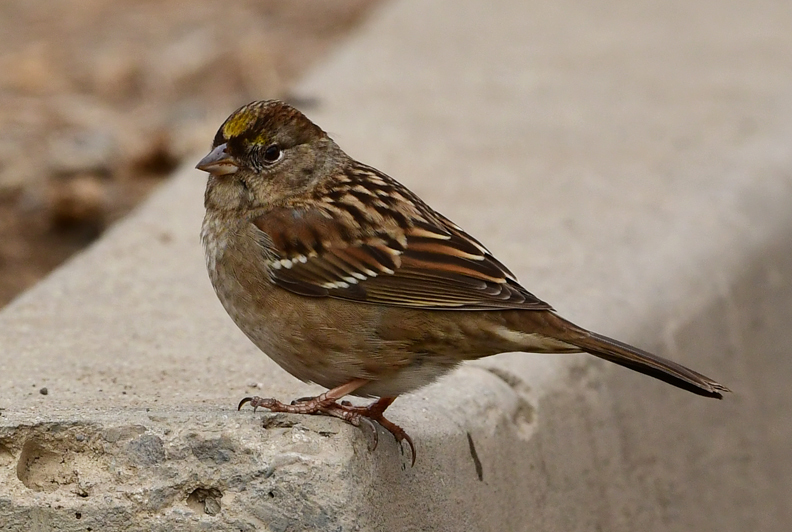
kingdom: Animalia
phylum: Chordata
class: Aves
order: Passeriformes
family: Passerellidae
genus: Zonotrichia
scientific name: Zonotrichia atricapilla
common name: Golden-crowned sparrow
